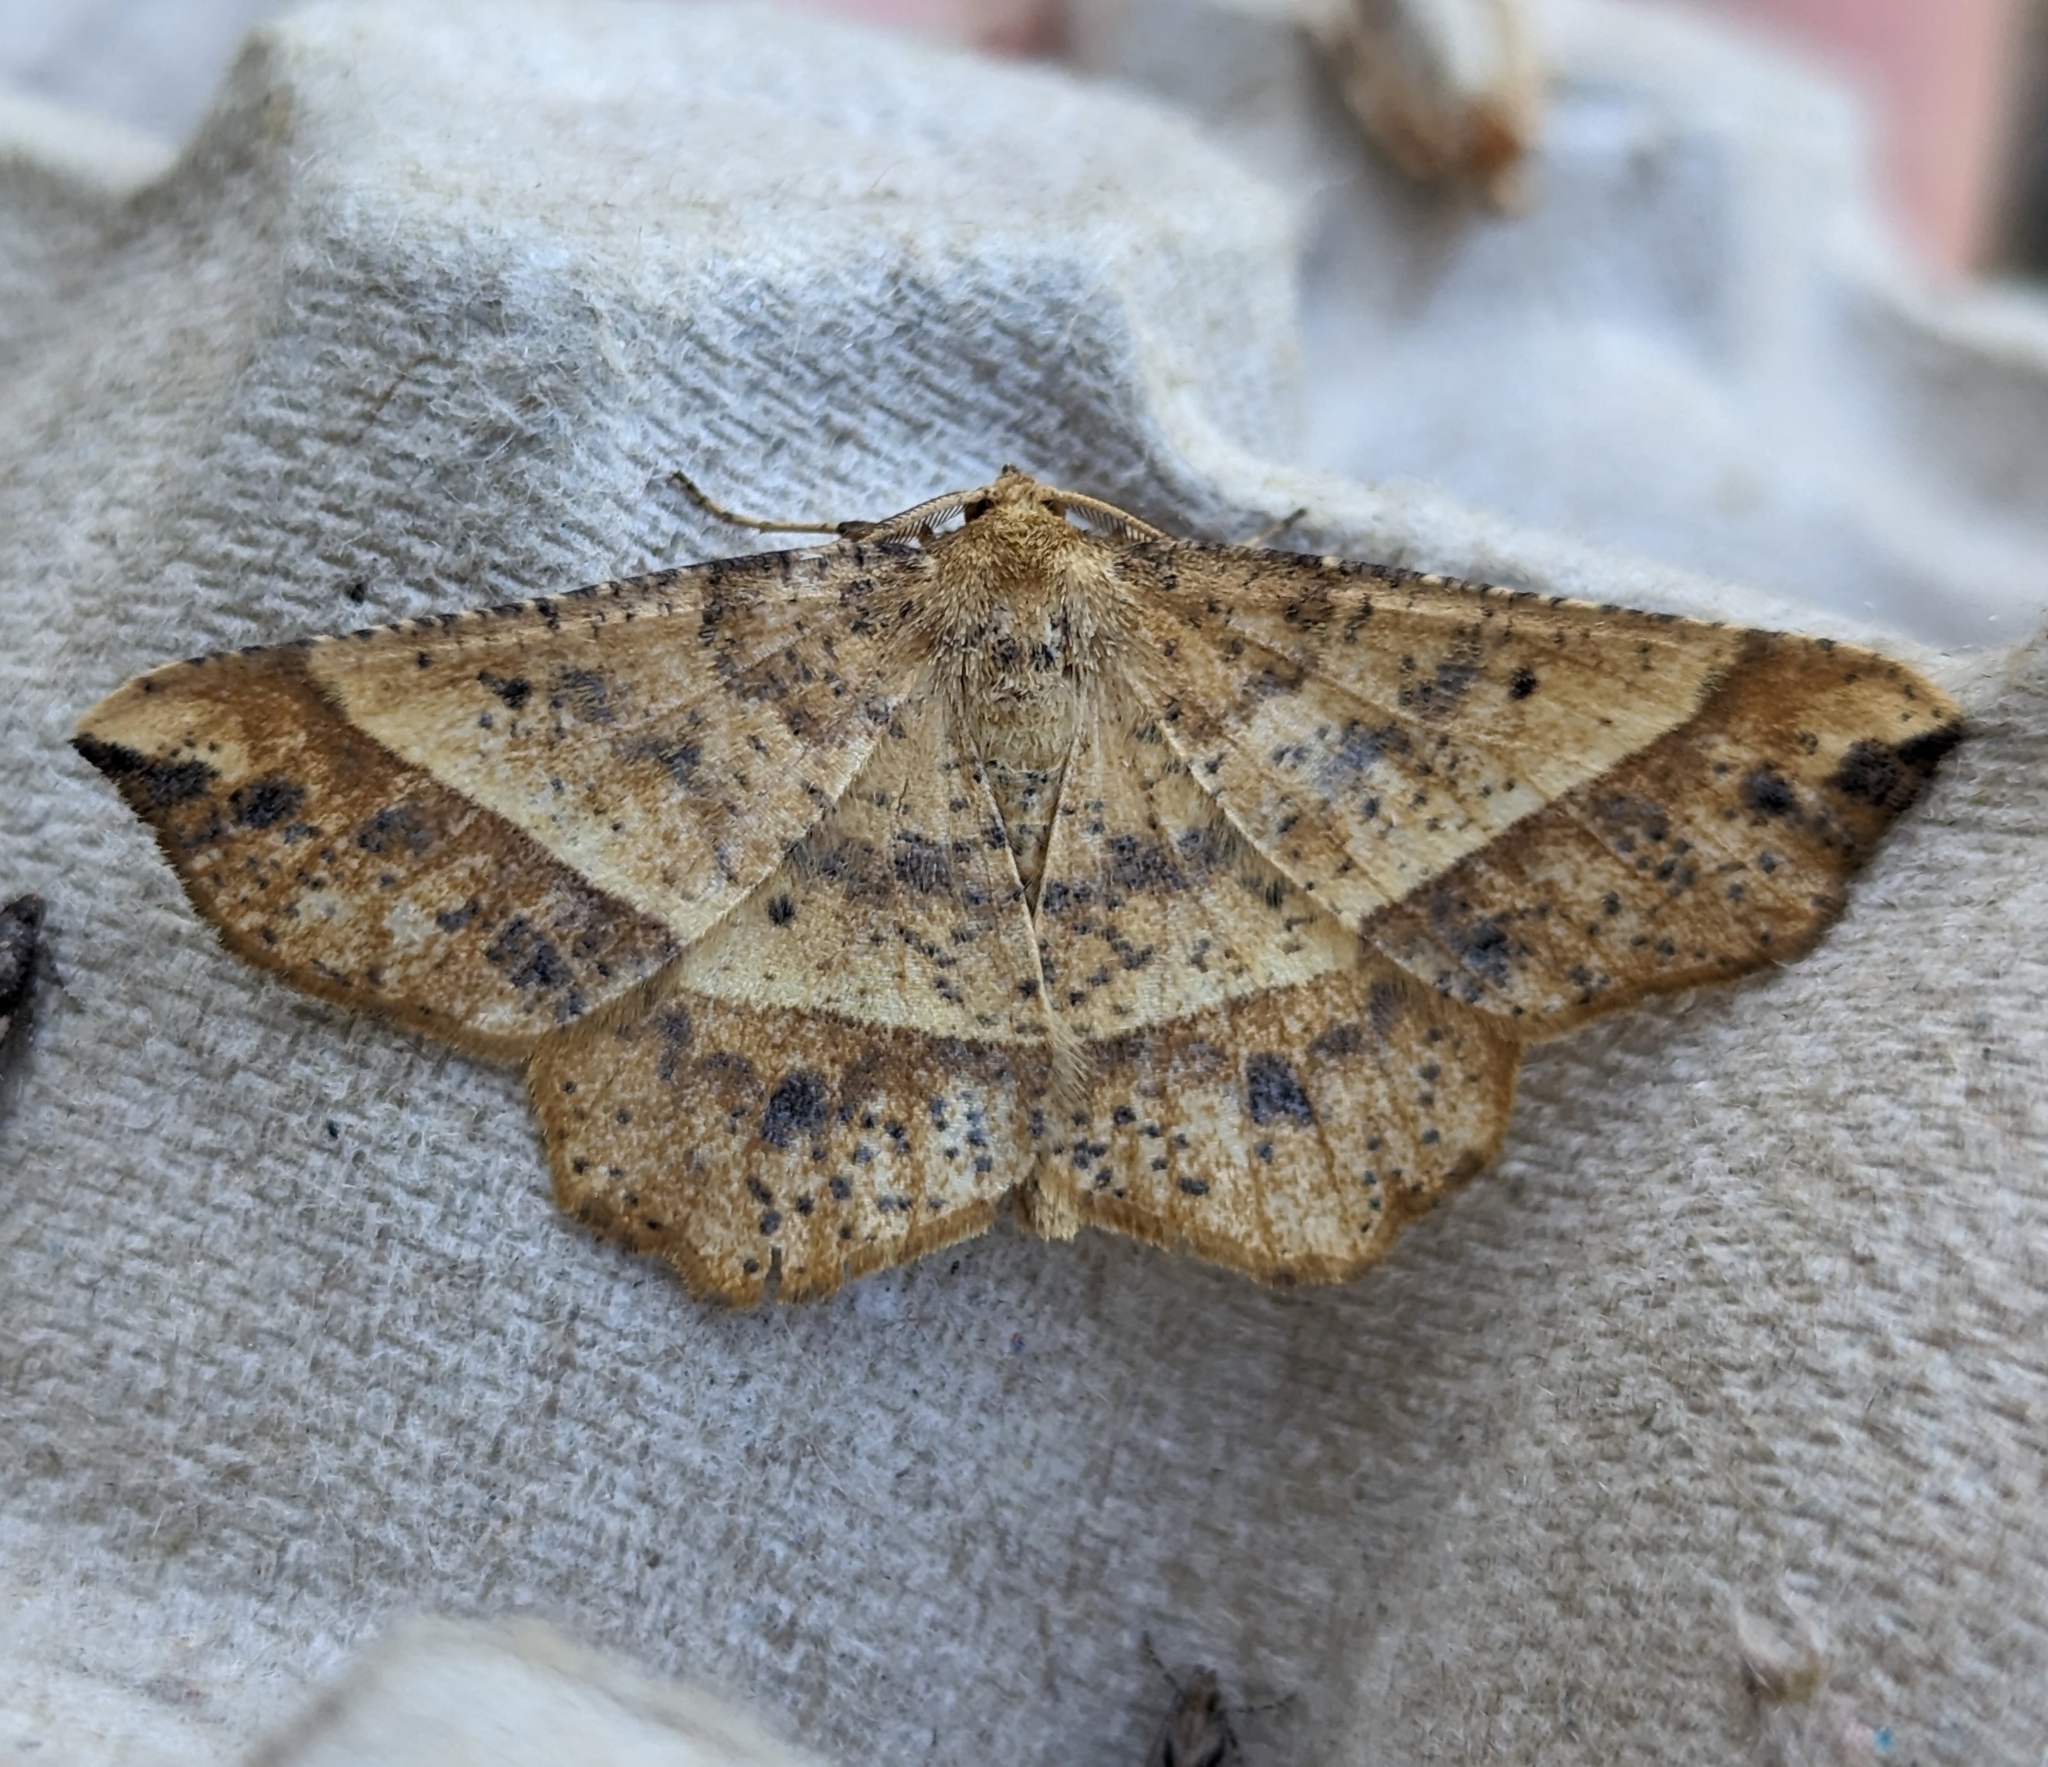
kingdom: Animalia
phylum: Arthropoda
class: Insecta
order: Lepidoptera
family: Geometridae
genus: Euchlaena
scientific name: Euchlaena tigrinaria
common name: Mottled euchlaena moth
